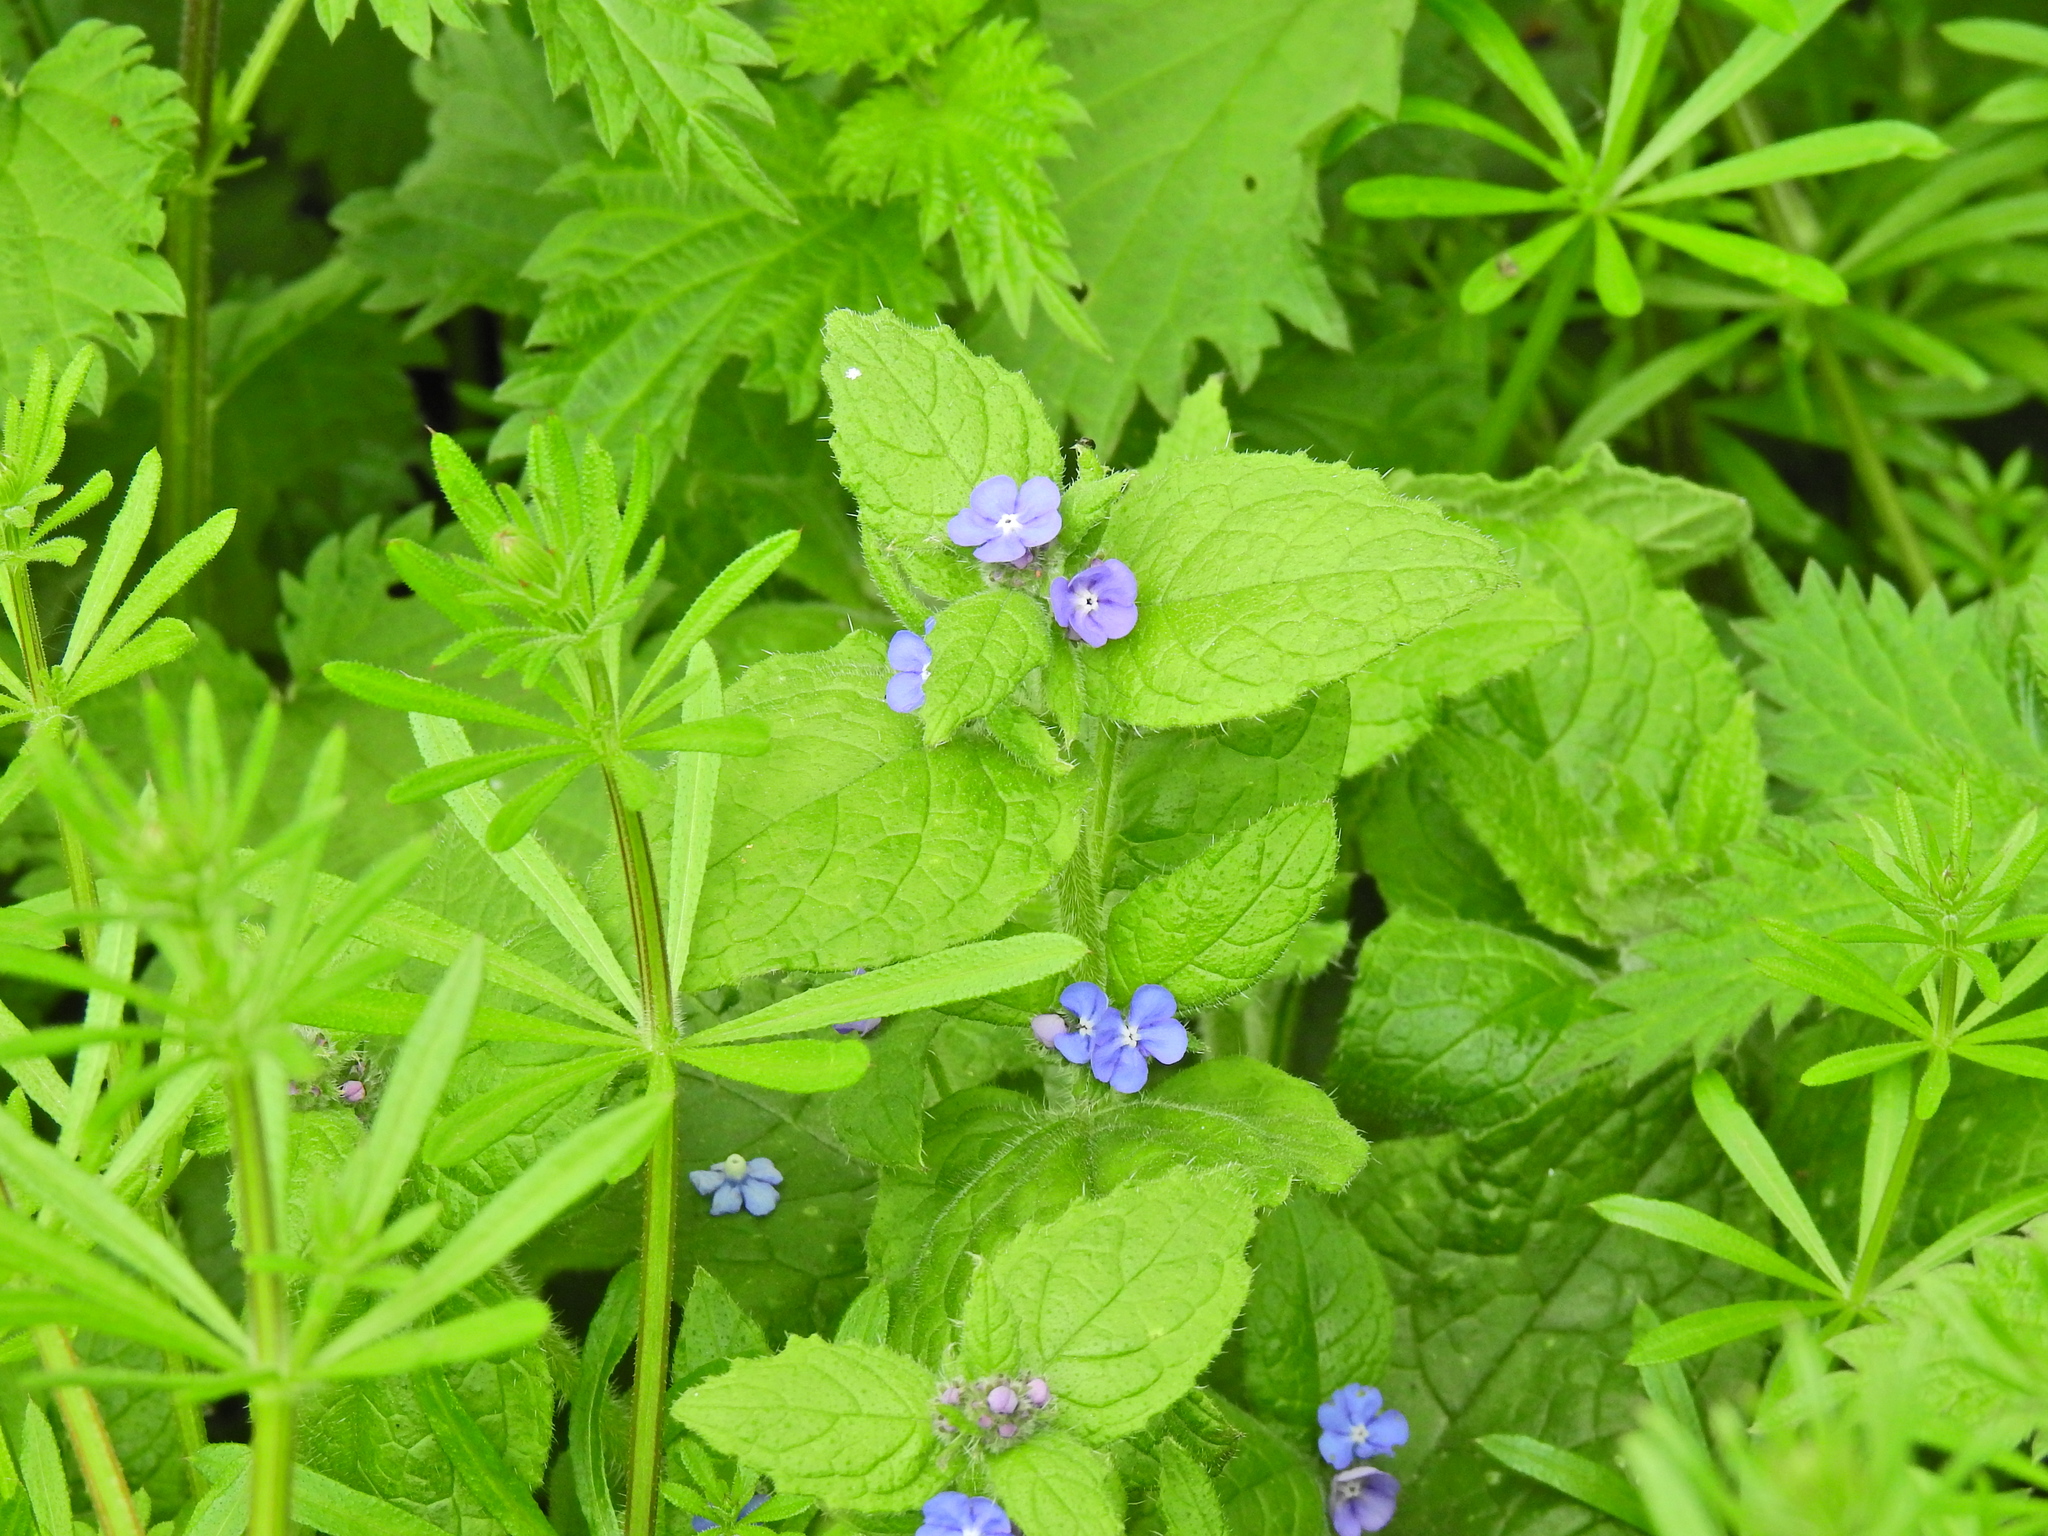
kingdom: Plantae
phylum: Tracheophyta
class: Magnoliopsida
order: Boraginales
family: Boraginaceae
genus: Pentaglottis
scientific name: Pentaglottis sempervirens
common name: Green alkanet
